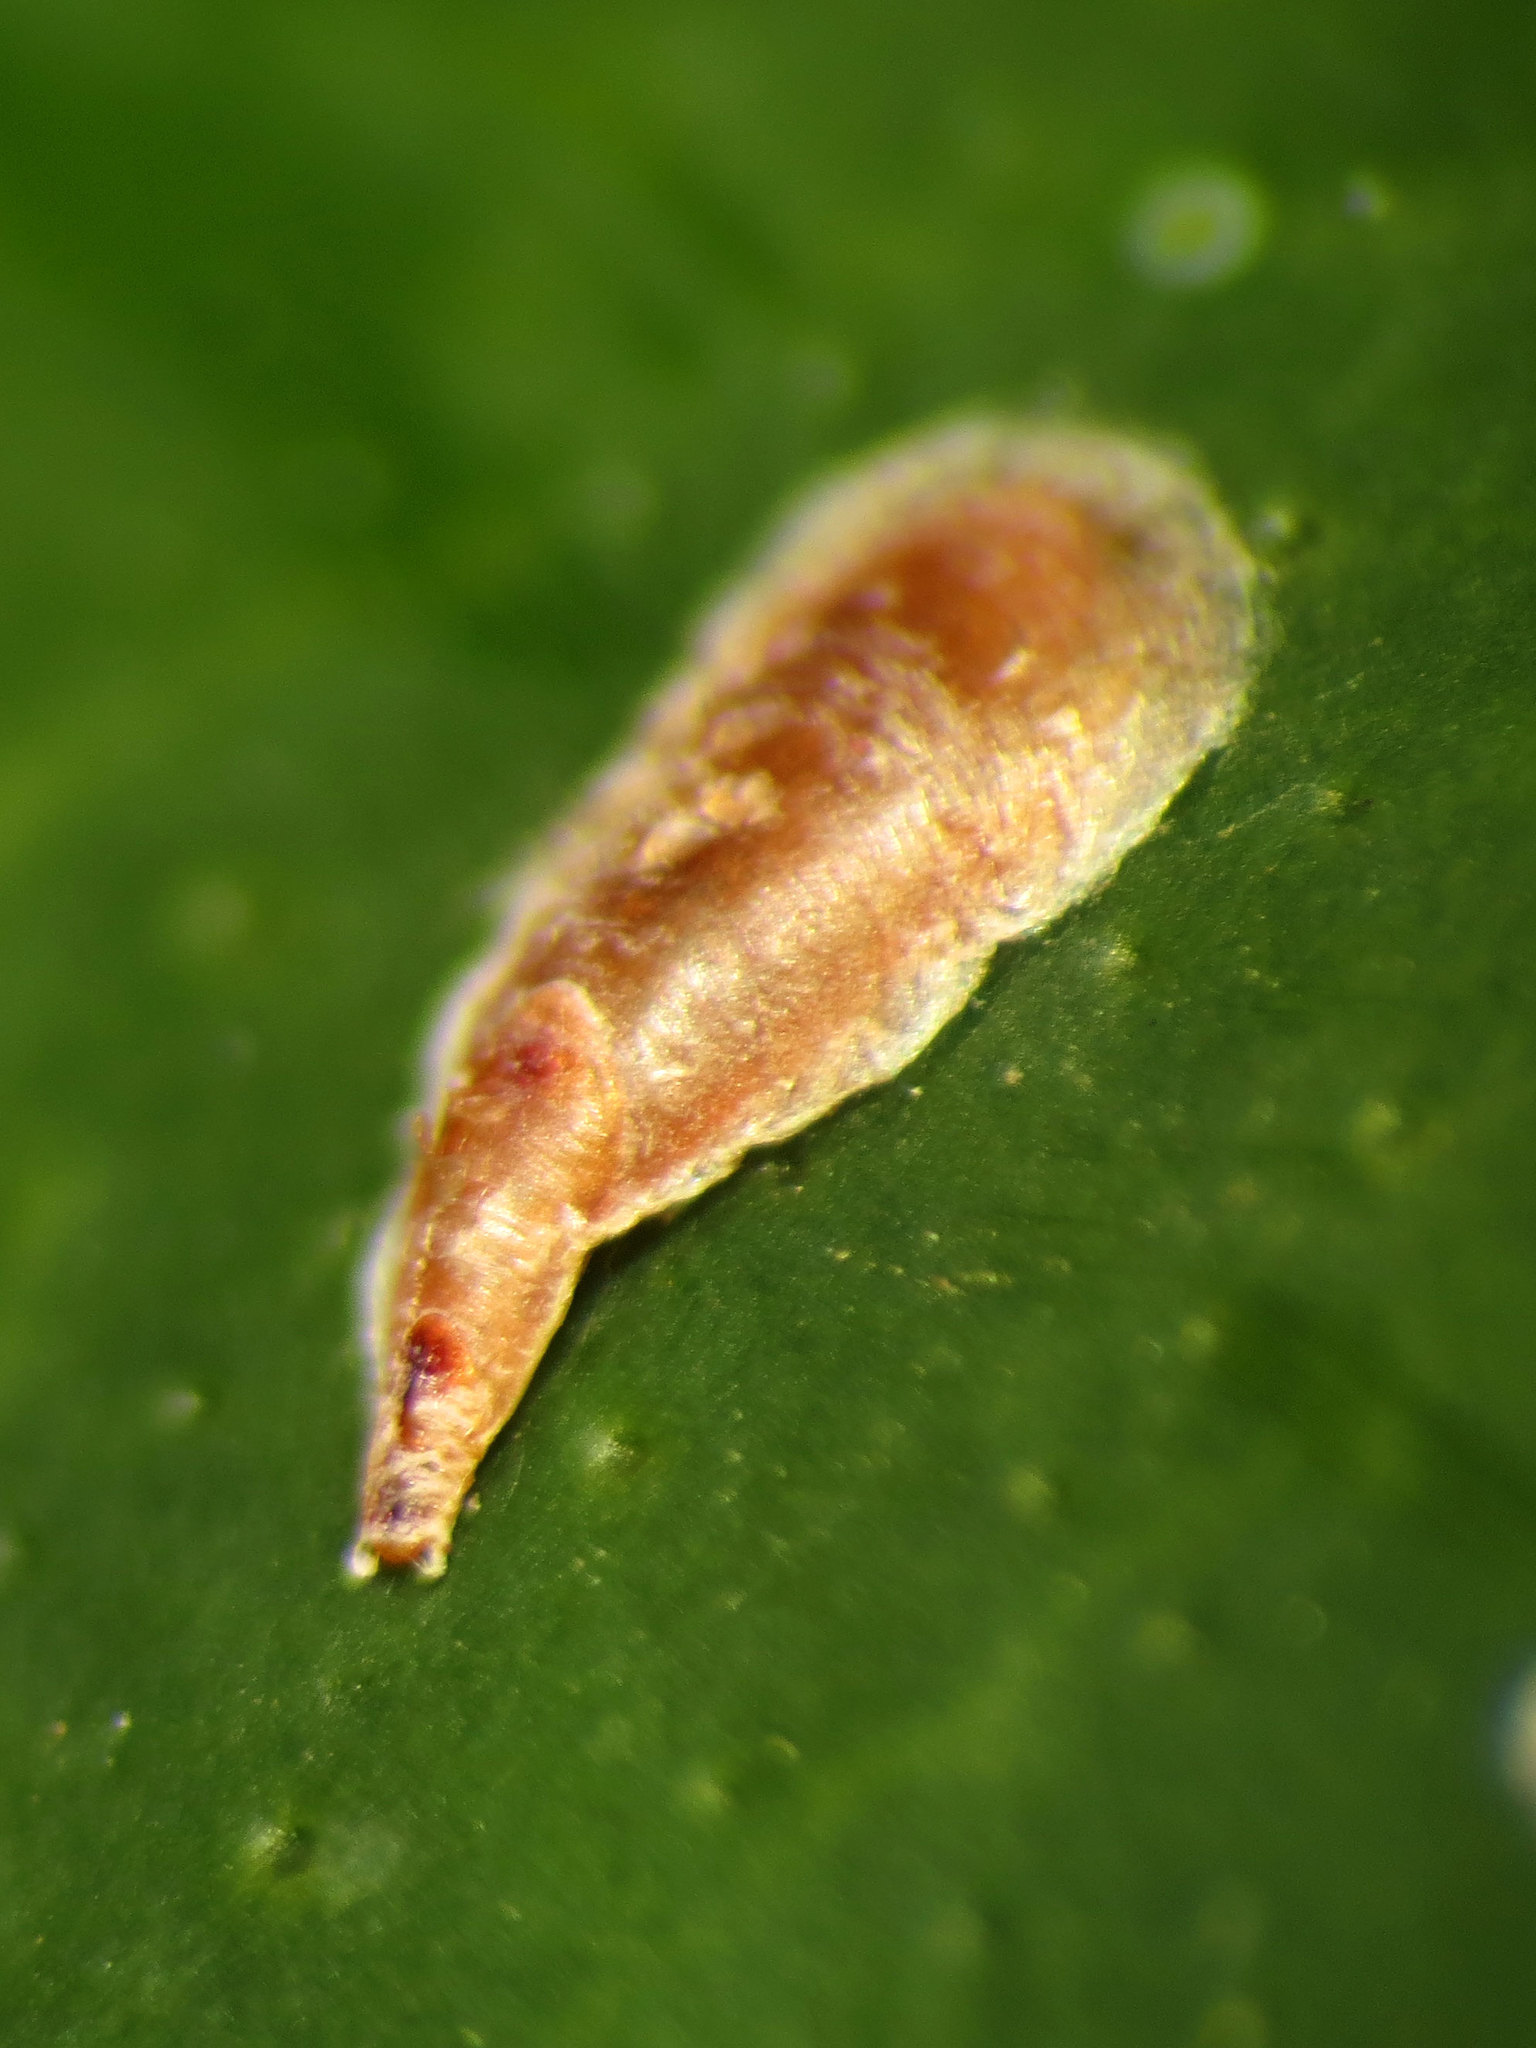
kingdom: Animalia
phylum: Arthropoda
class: Insecta
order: Hemiptera
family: Diaspididae
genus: Lepidosaphes
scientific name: Lepidosaphes beckii
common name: Purple scale
